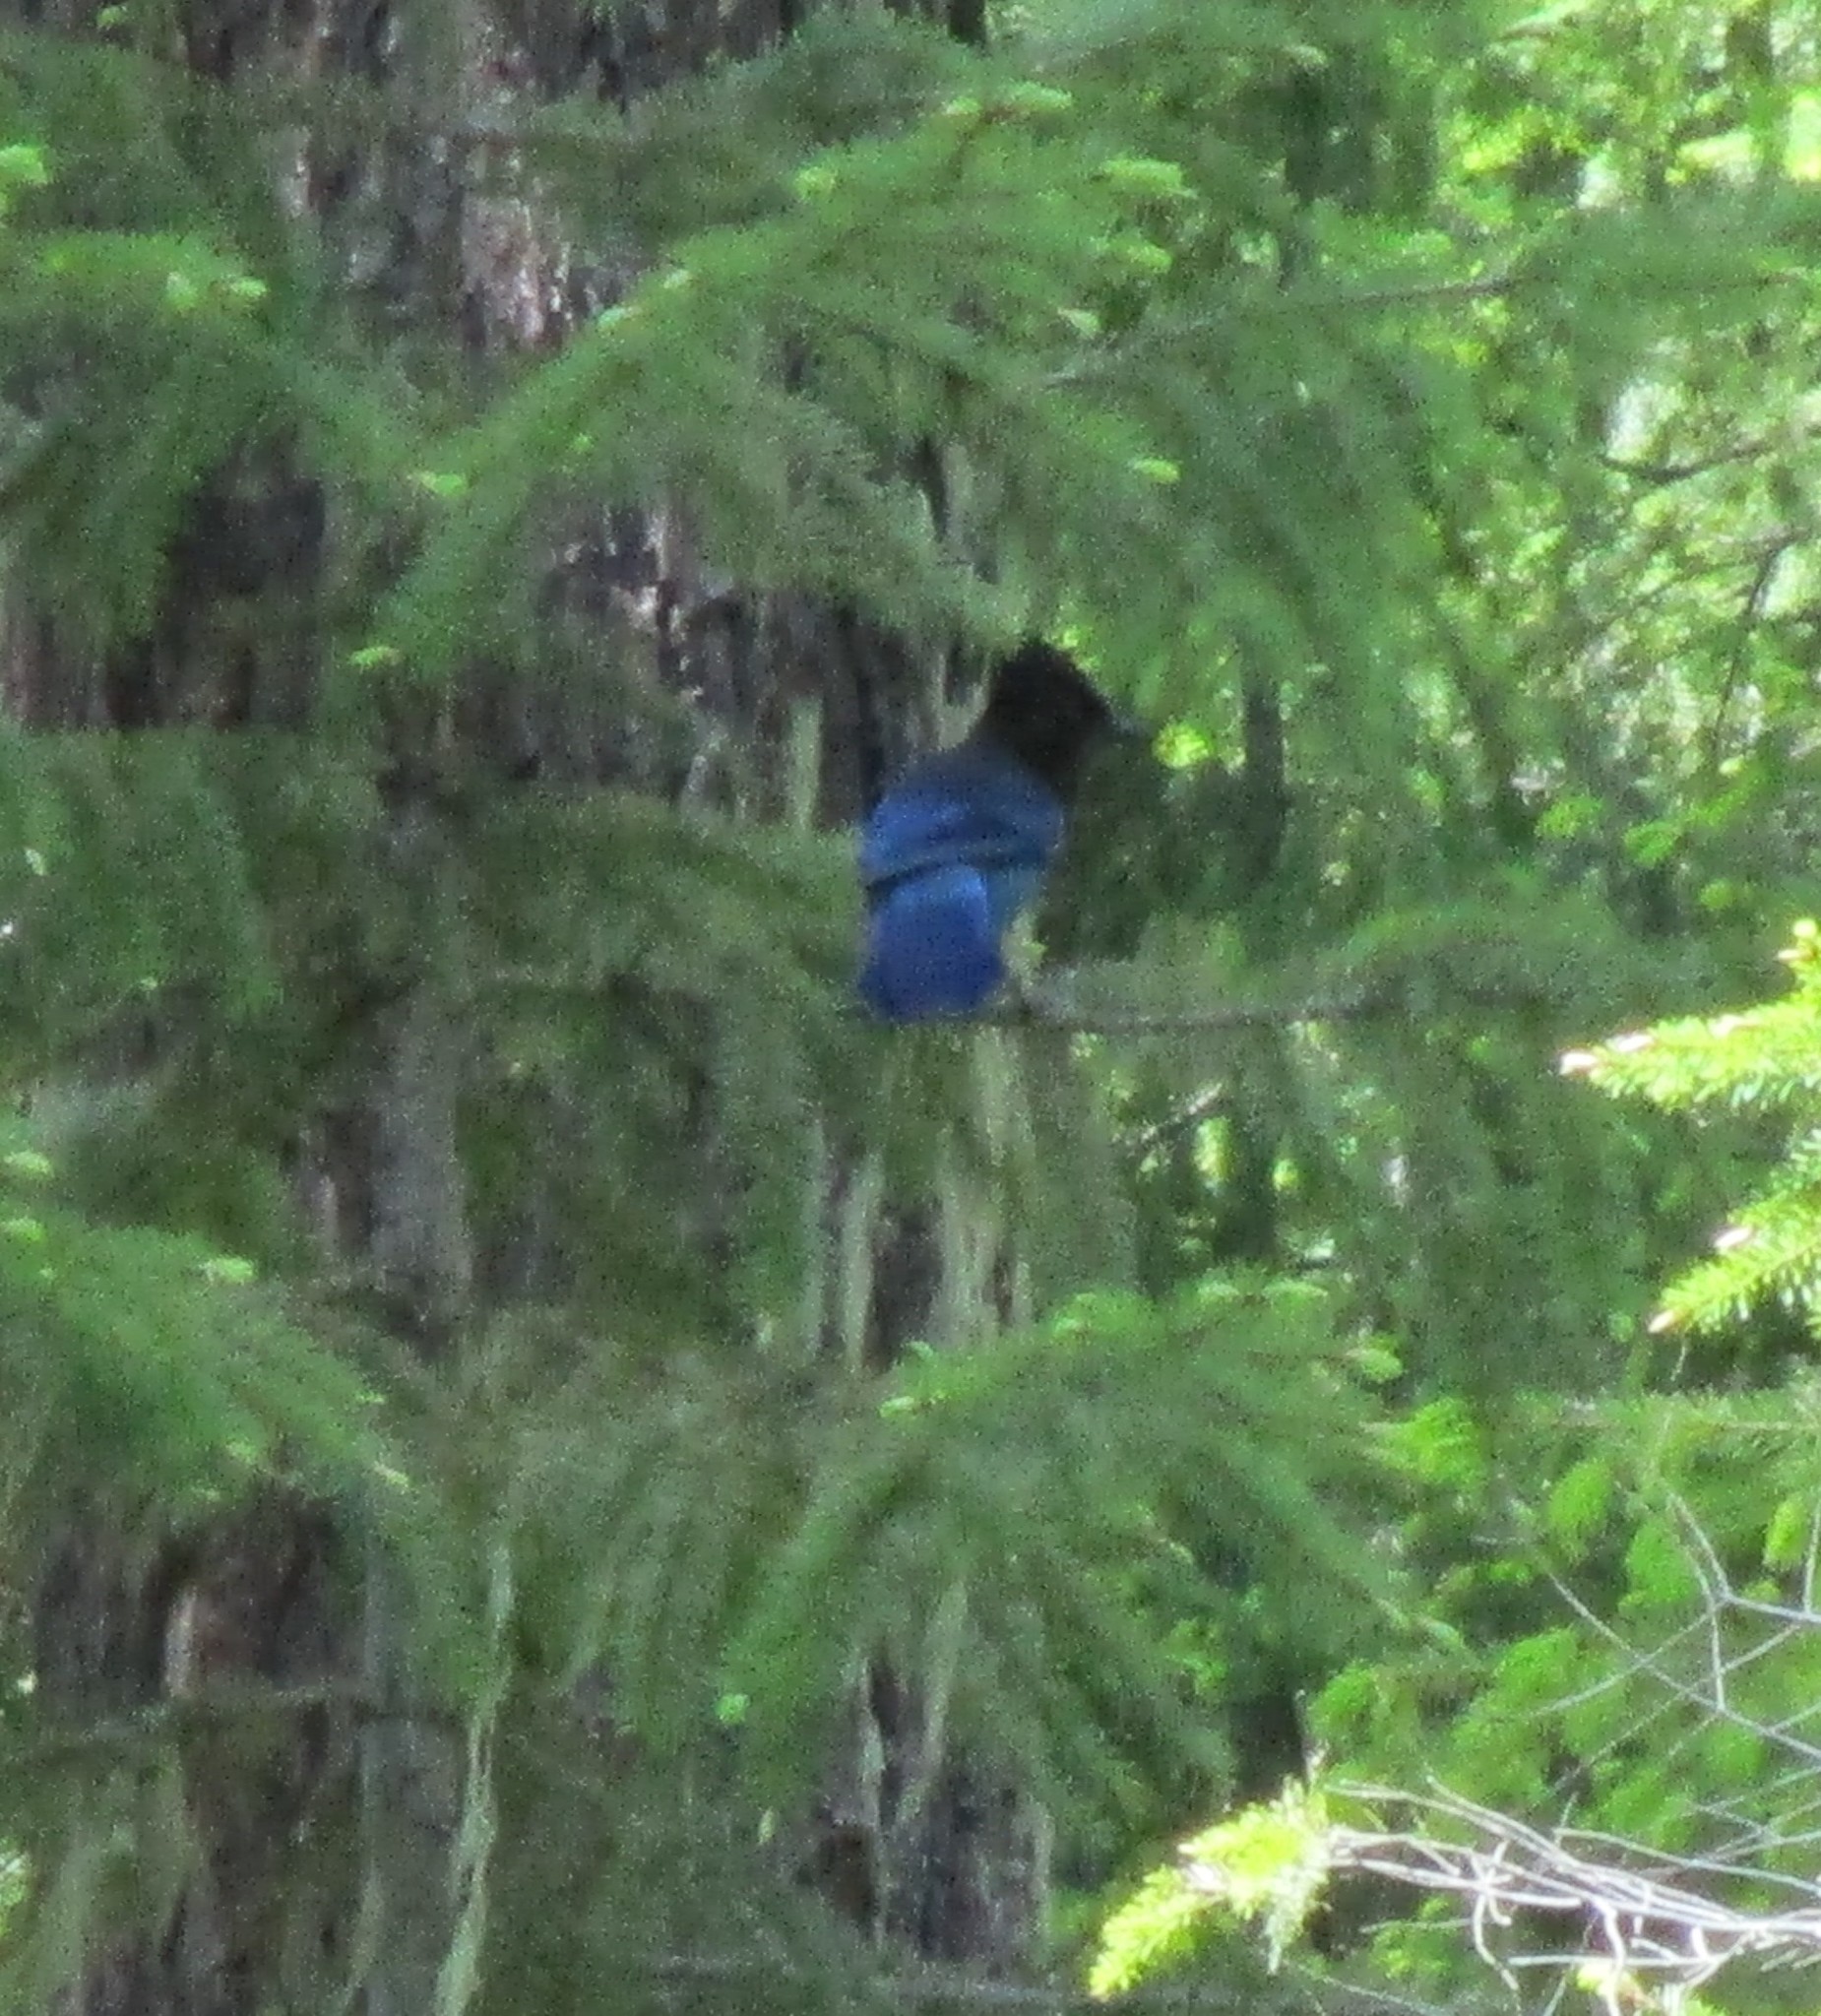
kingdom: Animalia
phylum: Chordata
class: Aves
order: Passeriformes
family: Corvidae
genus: Cyanocitta
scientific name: Cyanocitta stelleri
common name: Steller's jay
